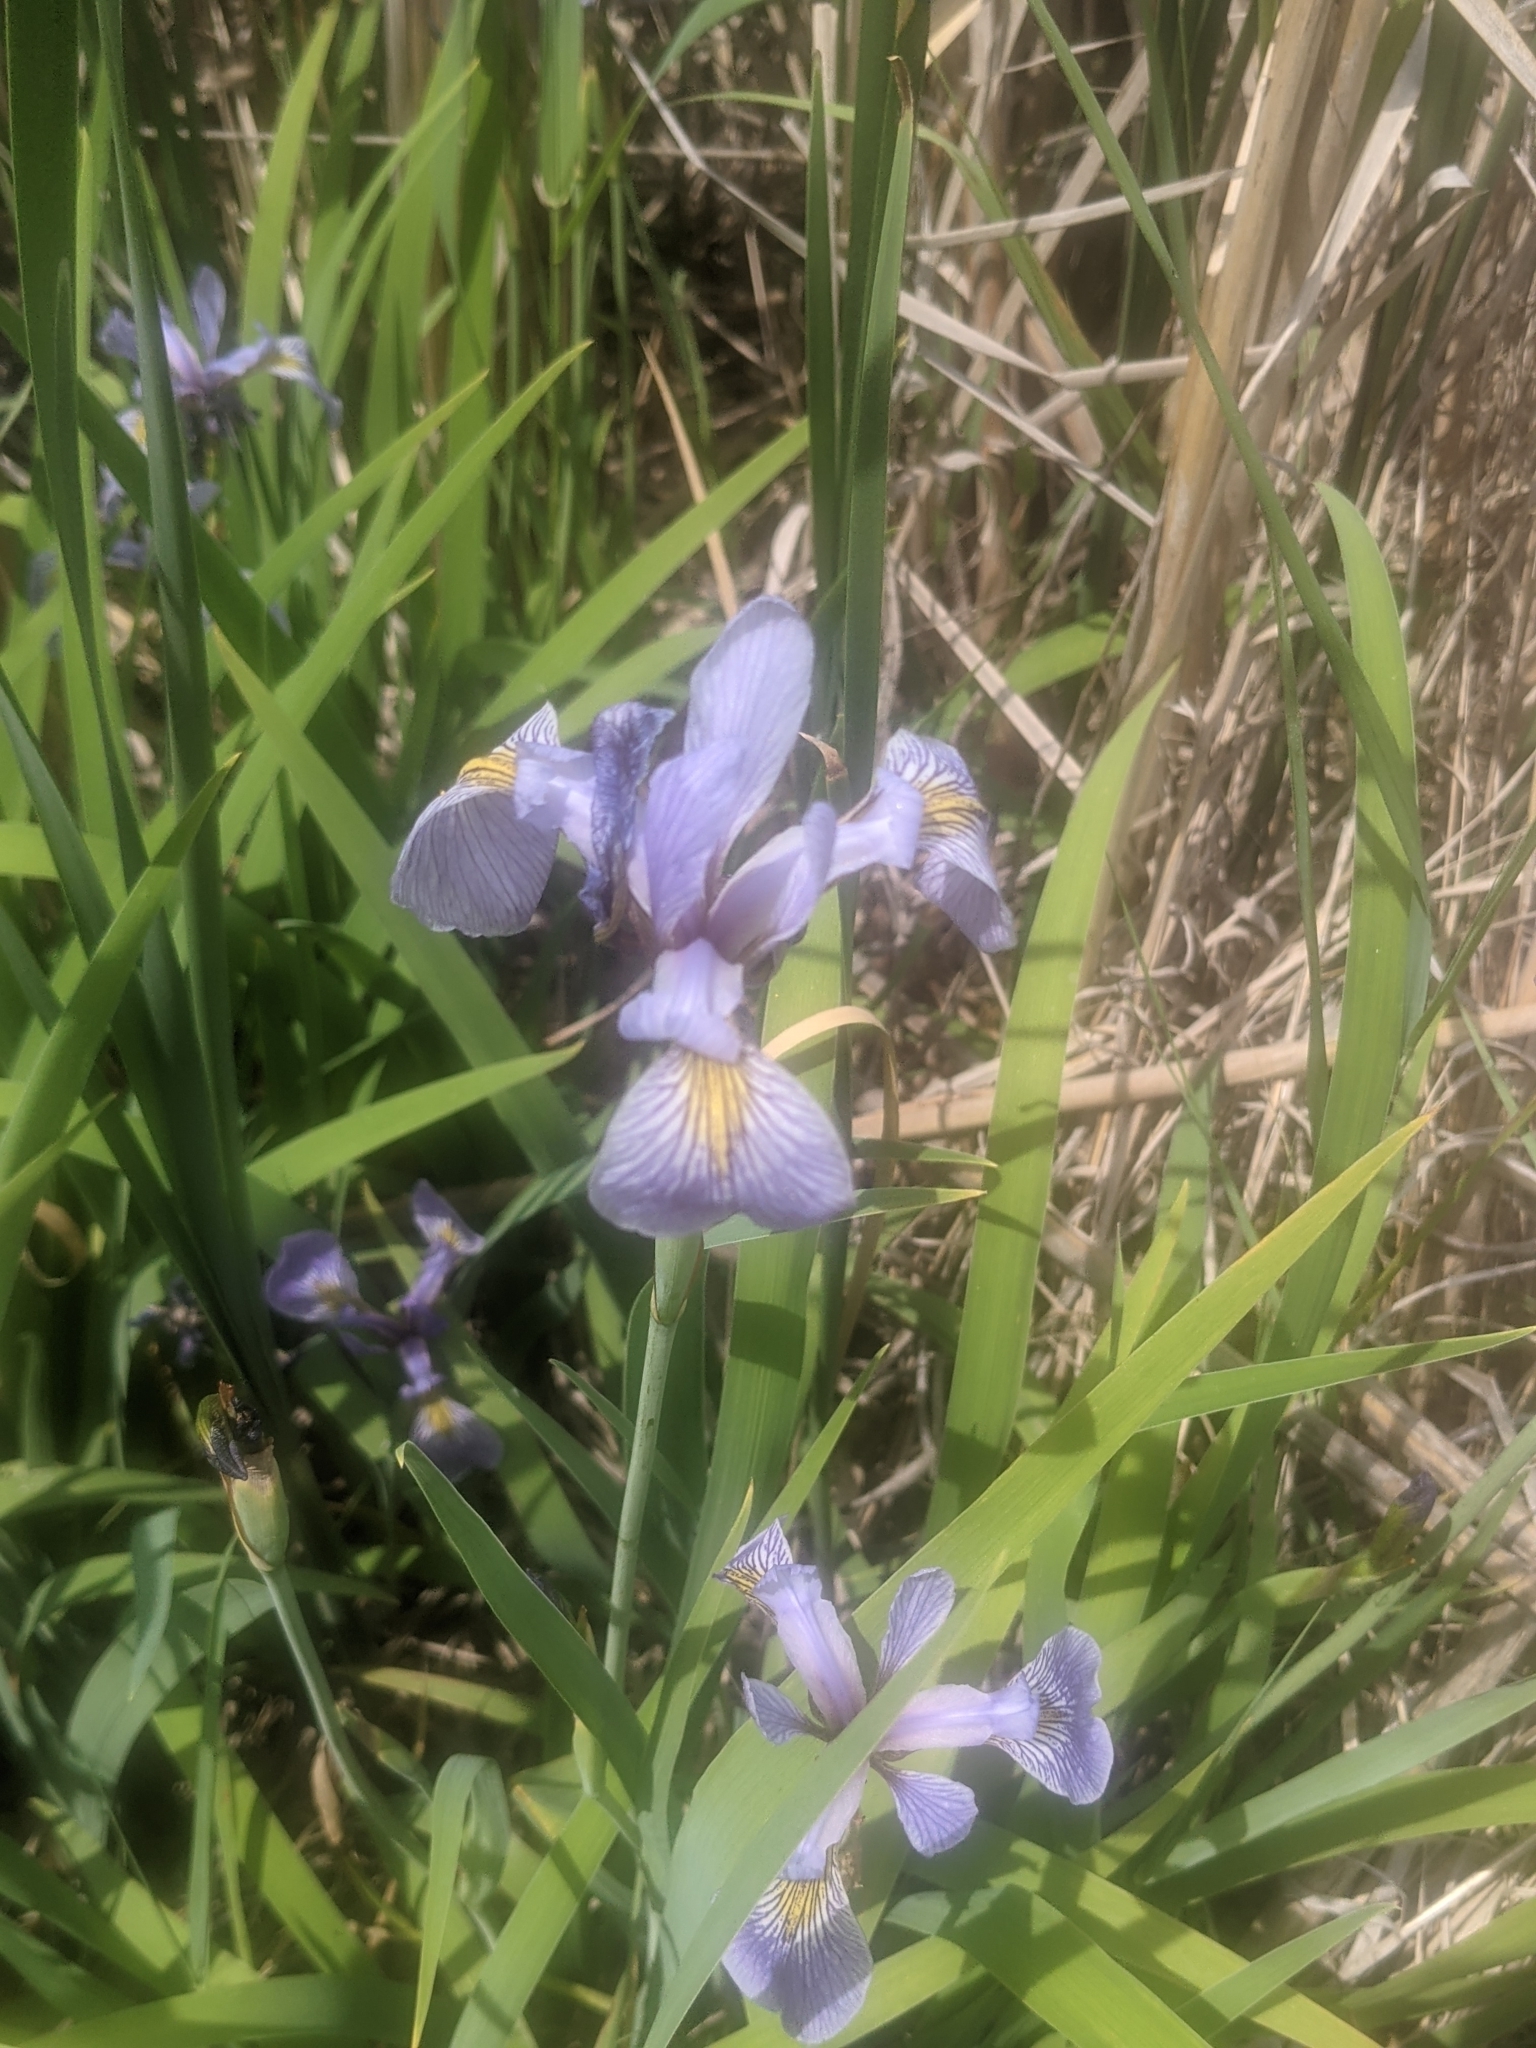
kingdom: Plantae
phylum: Tracheophyta
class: Liliopsida
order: Asparagales
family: Iridaceae
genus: Iris
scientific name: Iris virginica
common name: Southern blue flag
